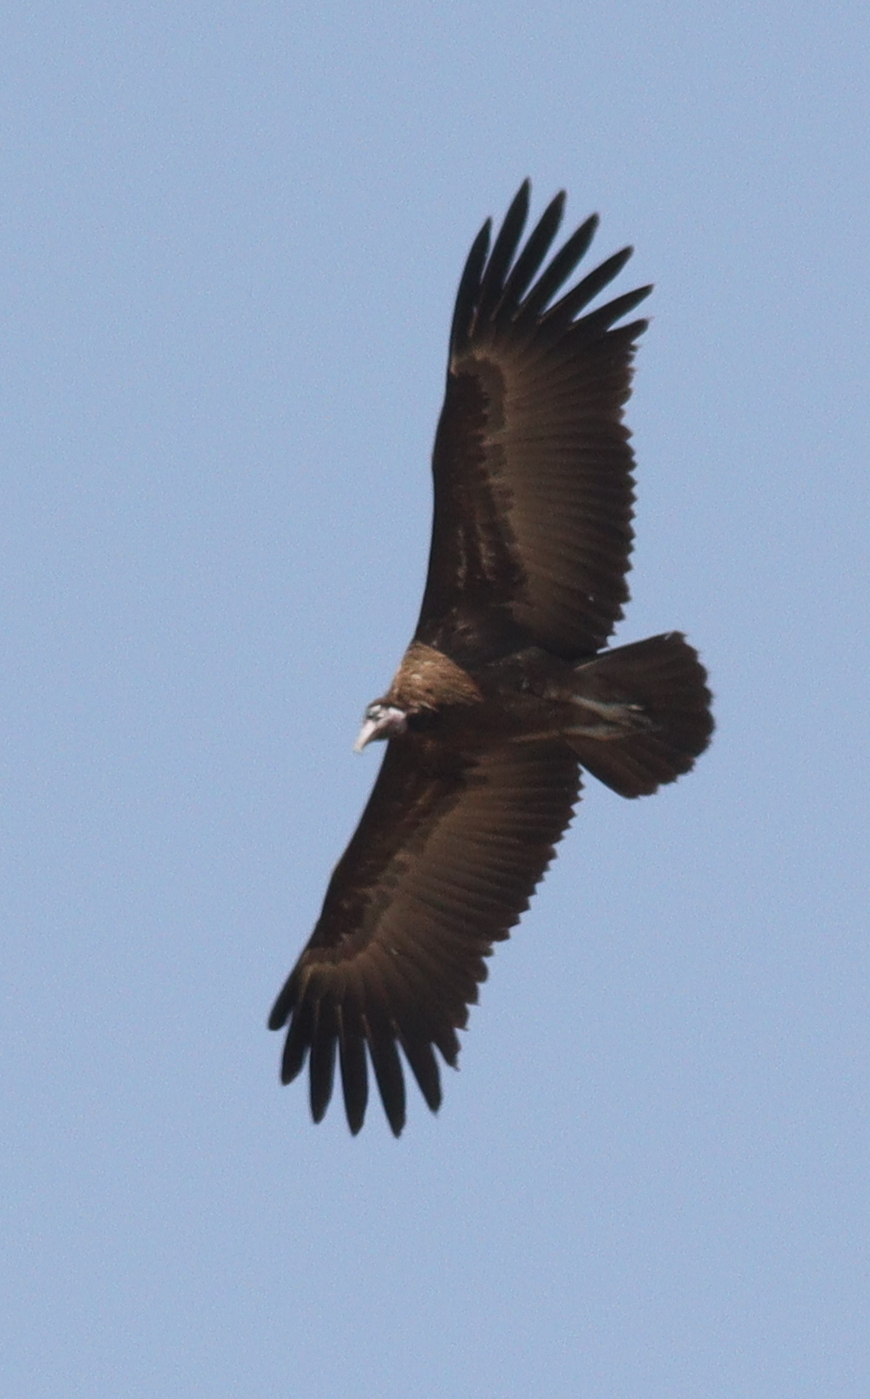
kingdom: Animalia
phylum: Chordata
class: Aves
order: Accipitriformes
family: Accipitridae
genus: Necrosyrtes
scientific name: Necrosyrtes monachus
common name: Hooded vulture
